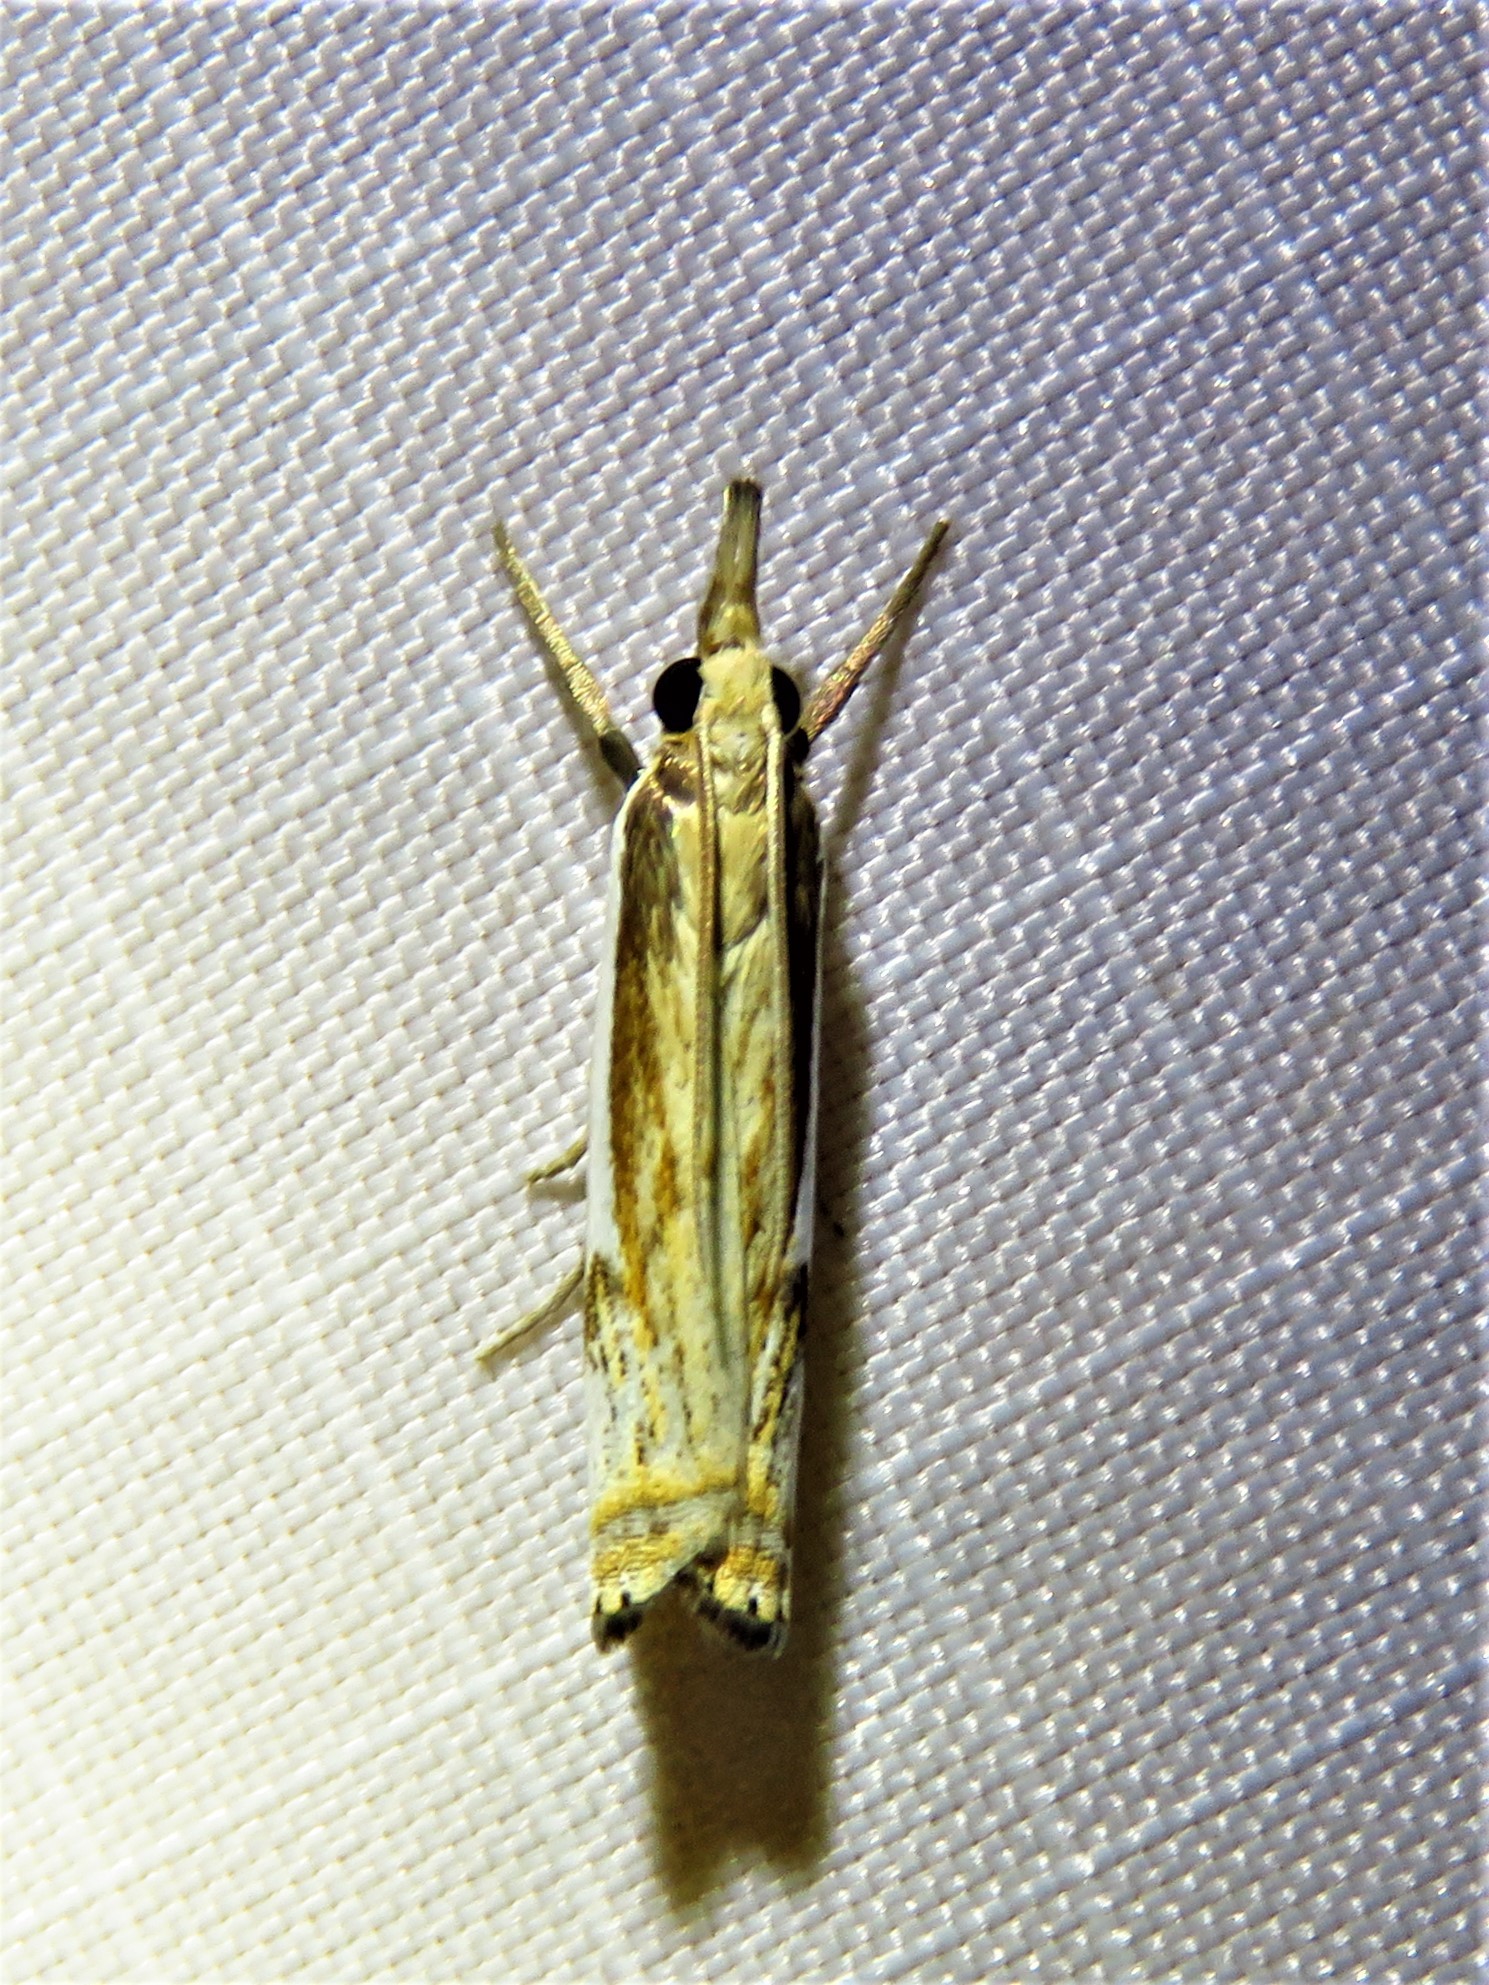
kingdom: Animalia
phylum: Arthropoda
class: Insecta
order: Lepidoptera
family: Crambidae
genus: Crambus
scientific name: Crambus agitatellus
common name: Double-banded grass-veneer
